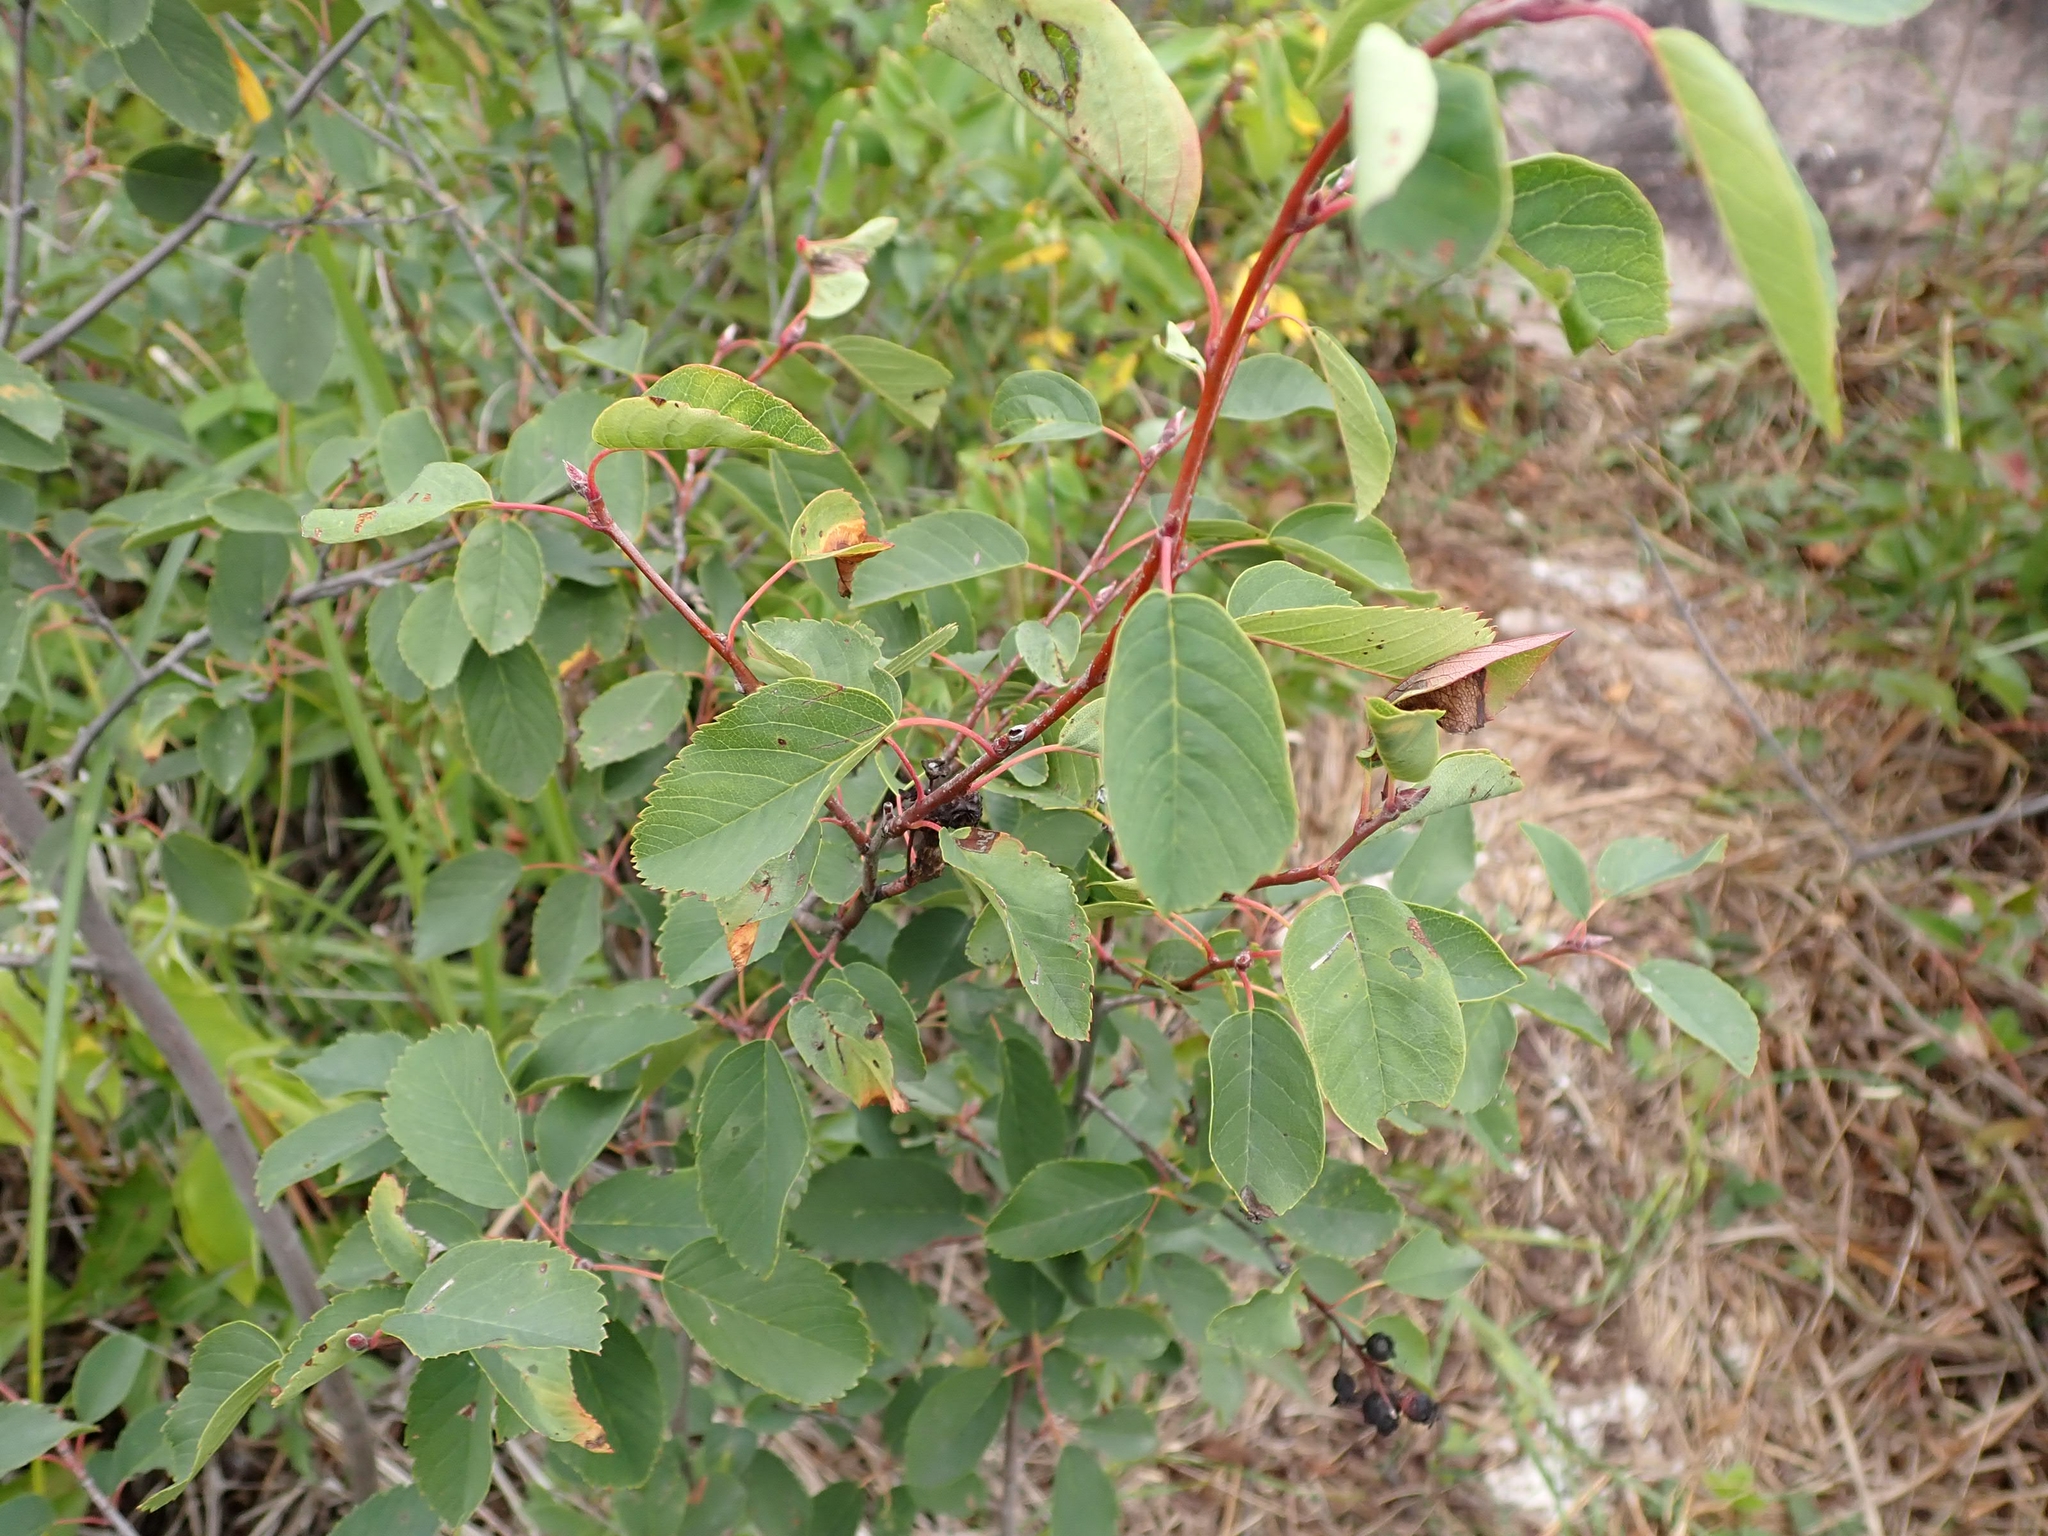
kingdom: Plantae
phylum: Tracheophyta
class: Magnoliopsida
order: Rosales
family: Rosaceae
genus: Amelanchier
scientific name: Amelanchier alnifolia
